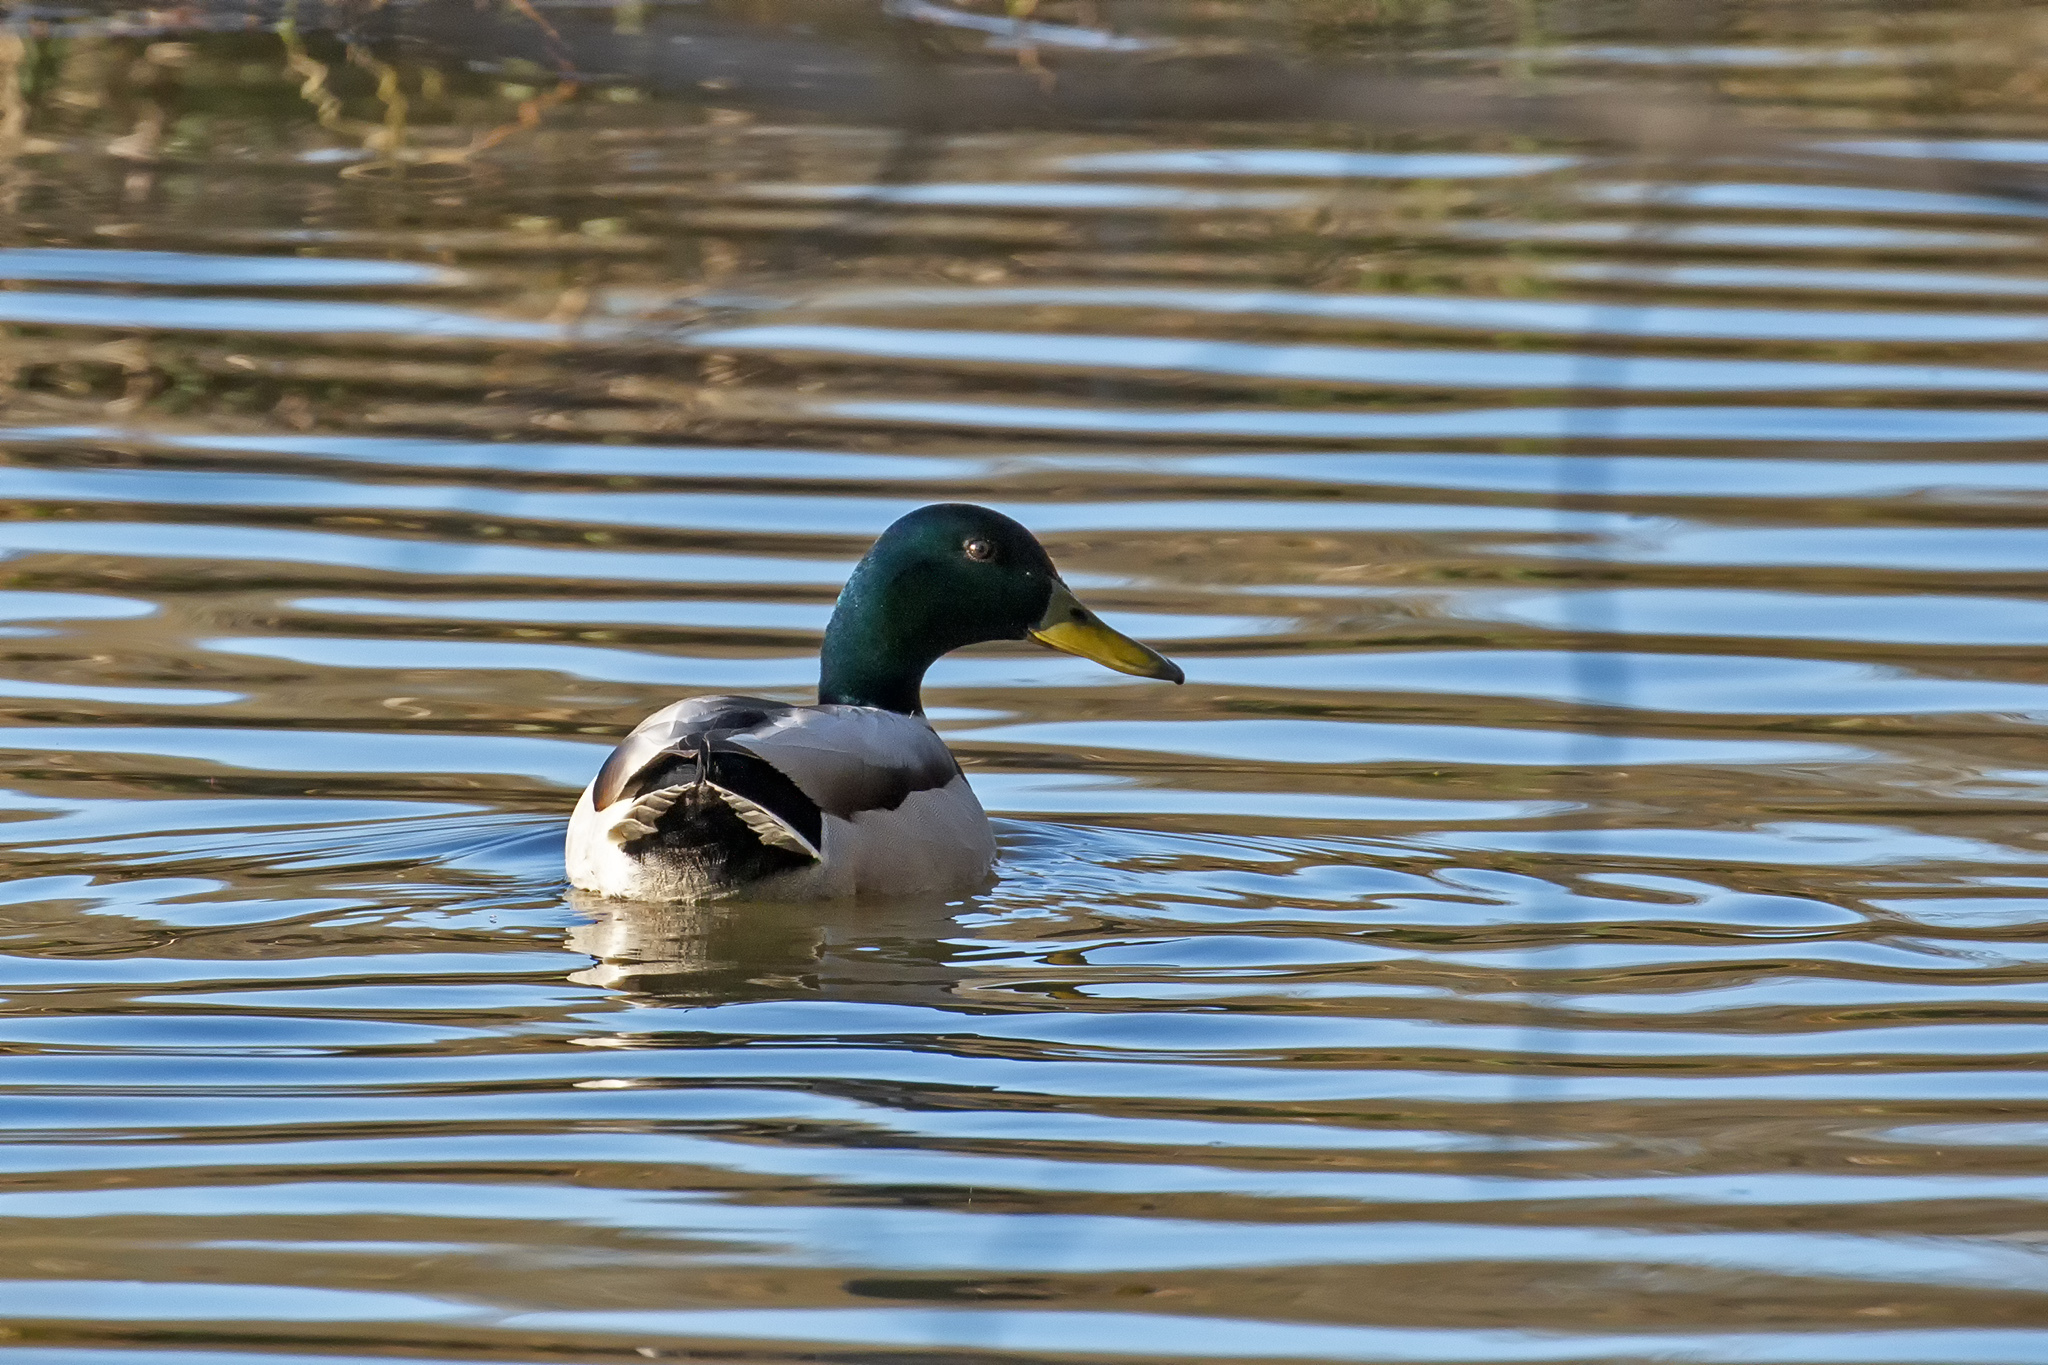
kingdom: Animalia
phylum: Chordata
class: Aves
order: Anseriformes
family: Anatidae
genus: Anas
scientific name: Anas platyrhynchos
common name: Mallard
